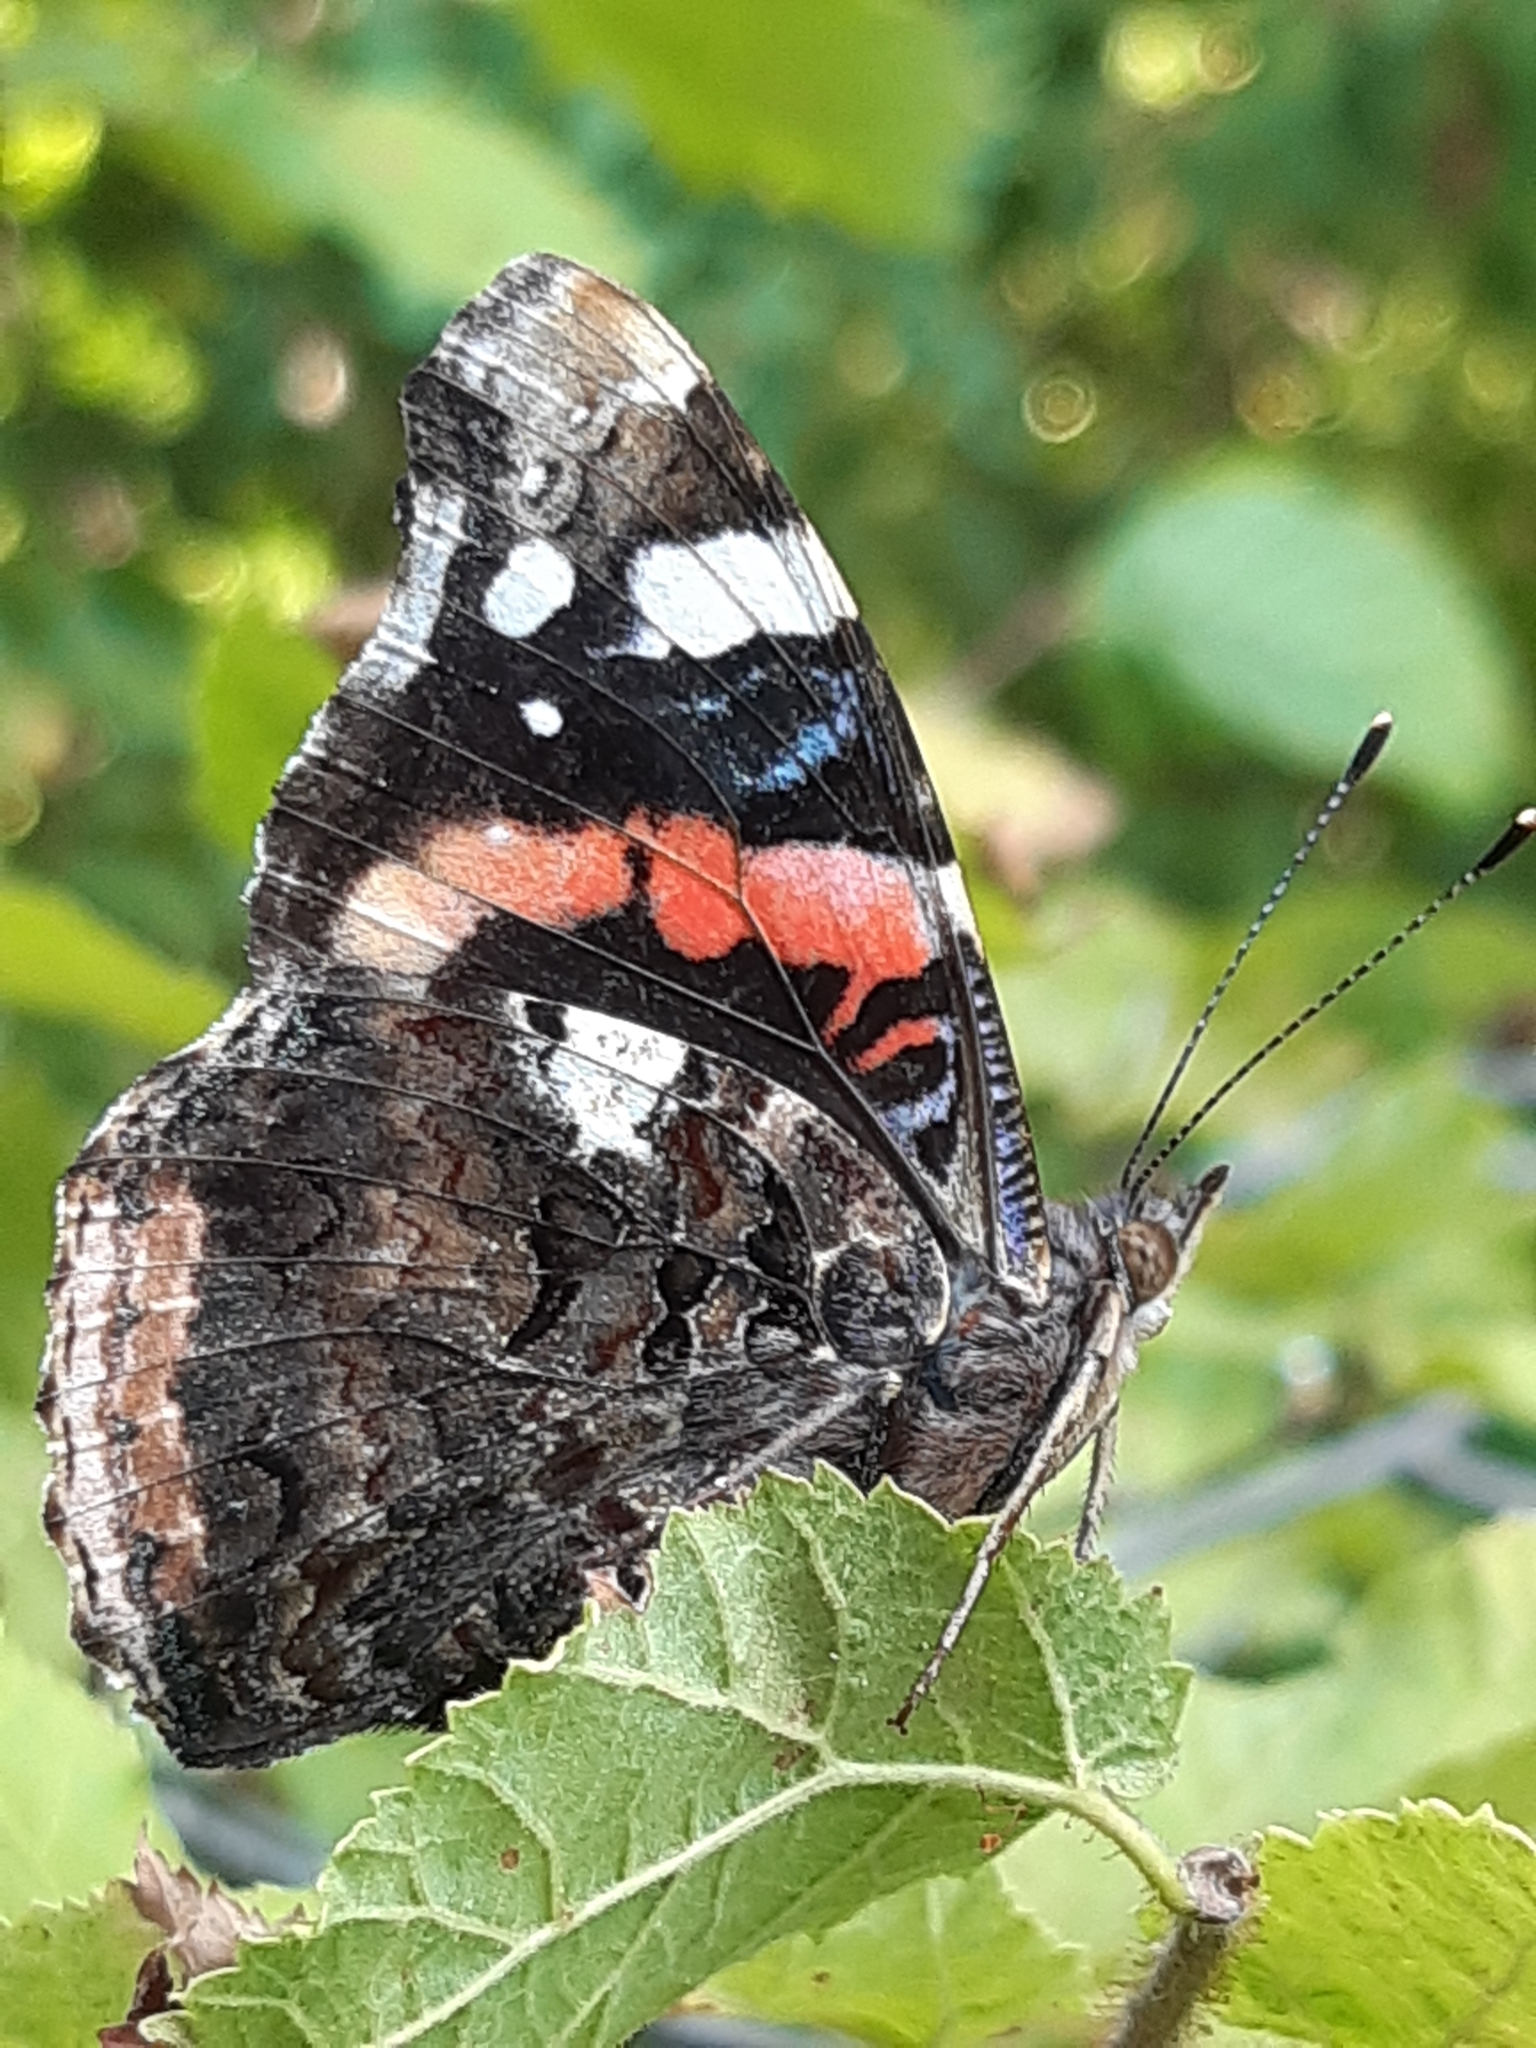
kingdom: Animalia
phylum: Arthropoda
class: Insecta
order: Lepidoptera
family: Nymphalidae
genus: Vanessa
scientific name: Vanessa atalanta
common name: Red admiral
